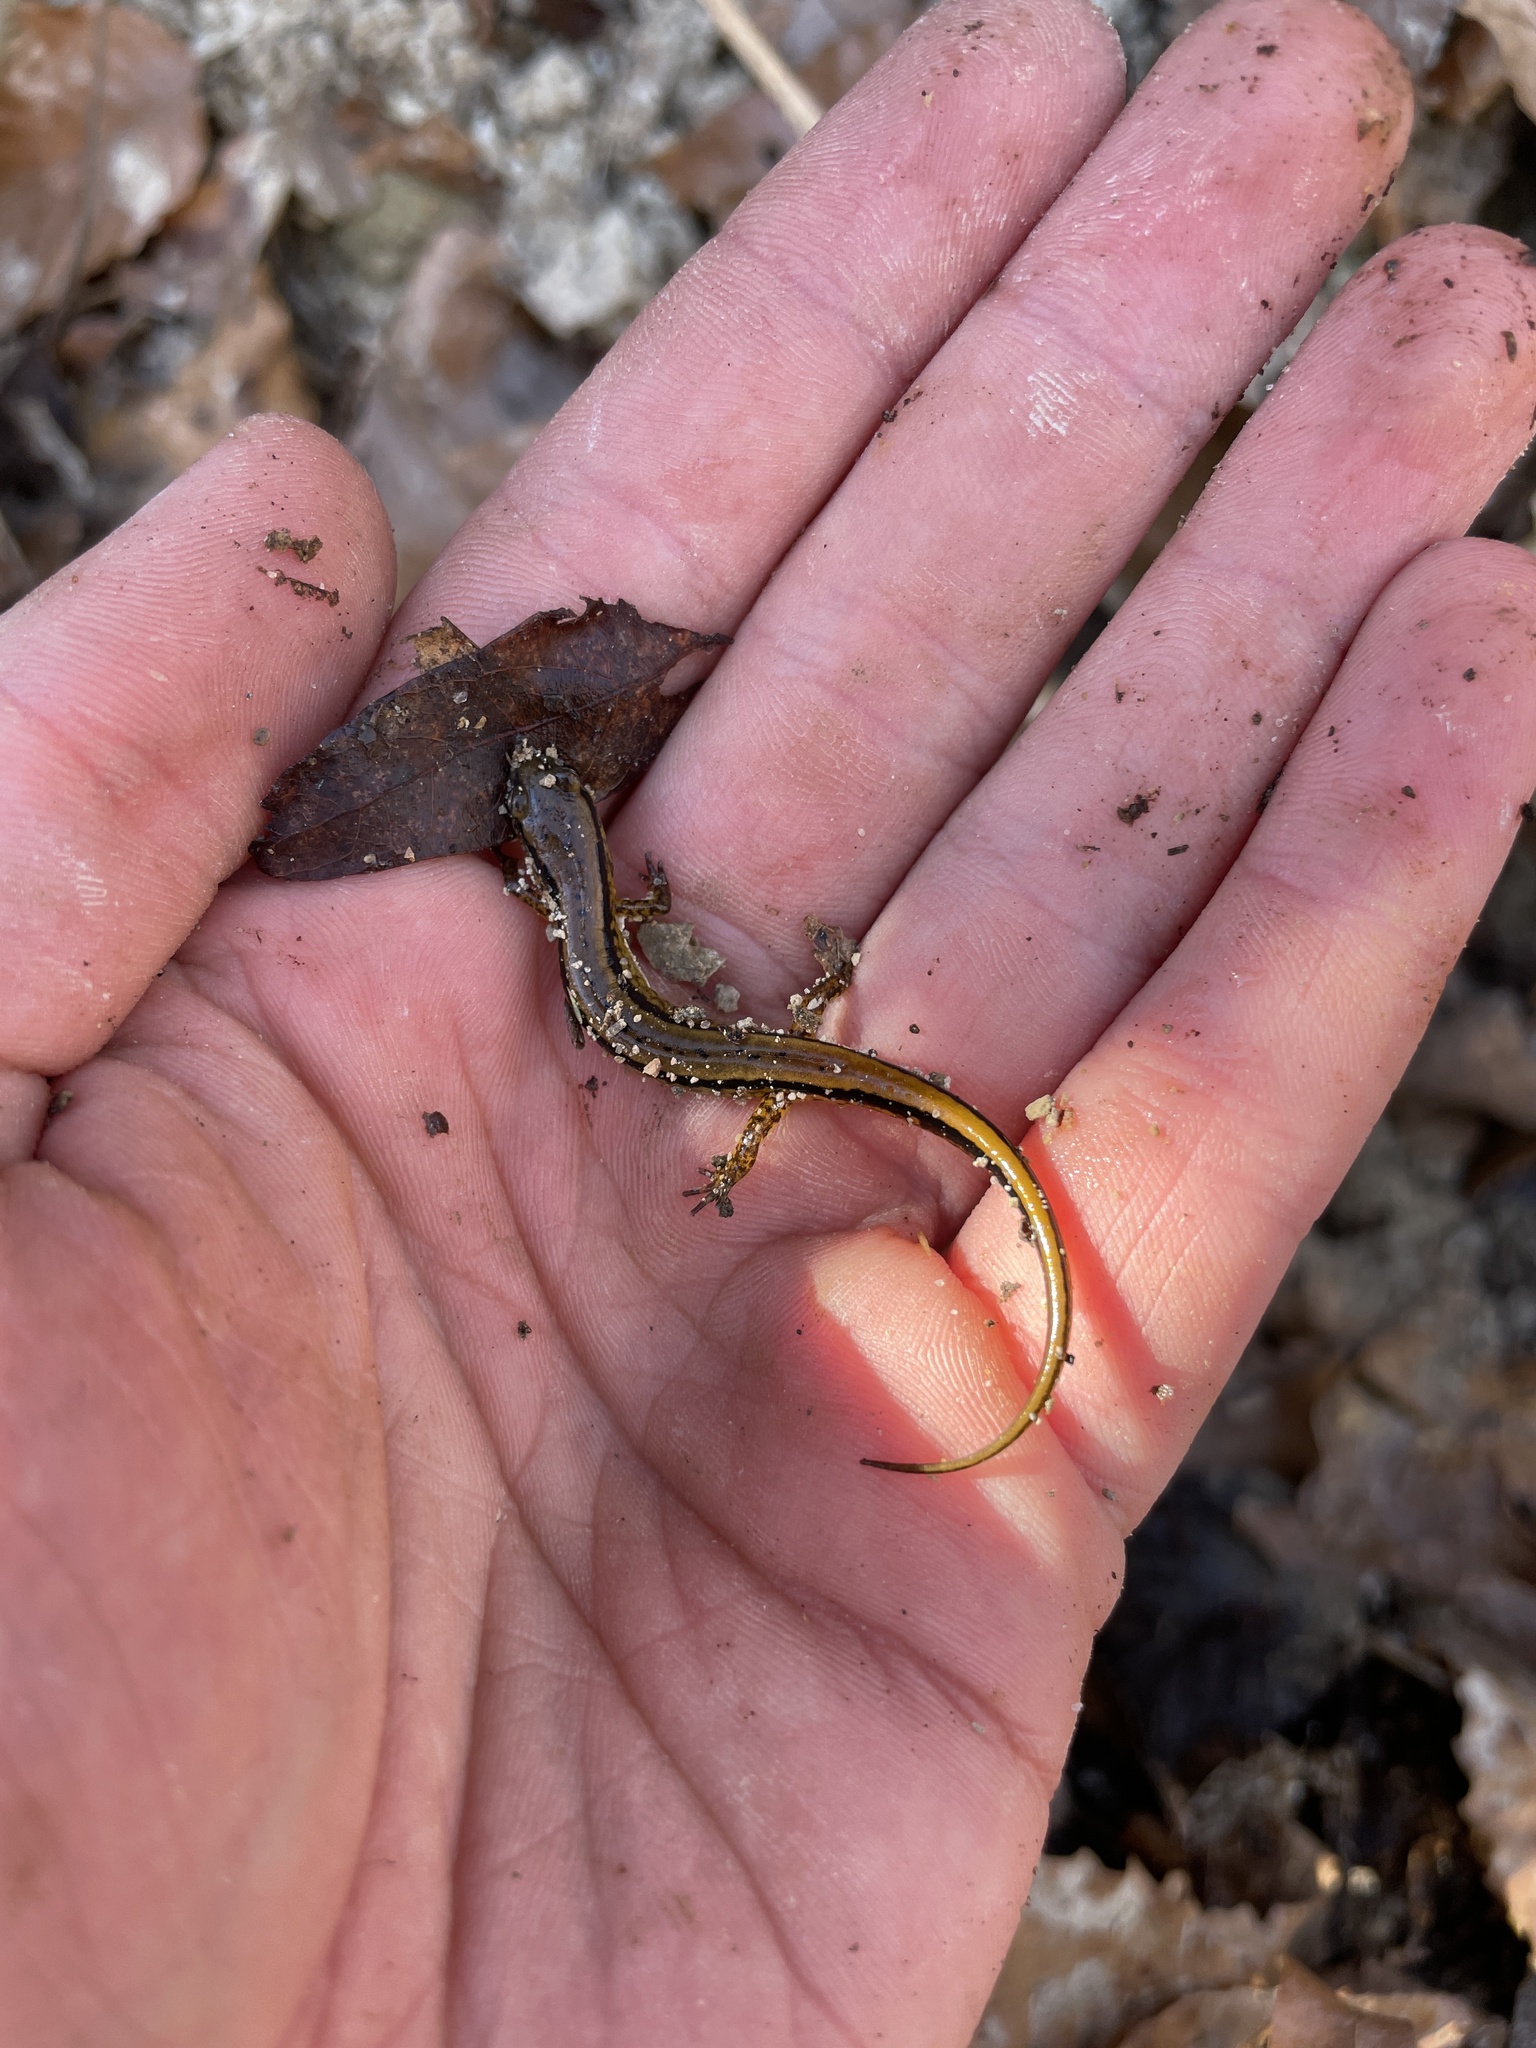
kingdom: Animalia
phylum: Chordata
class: Amphibia
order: Caudata
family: Plethodontidae
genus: Eurycea
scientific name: Eurycea cirrigera
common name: Southern two-lined salamander
